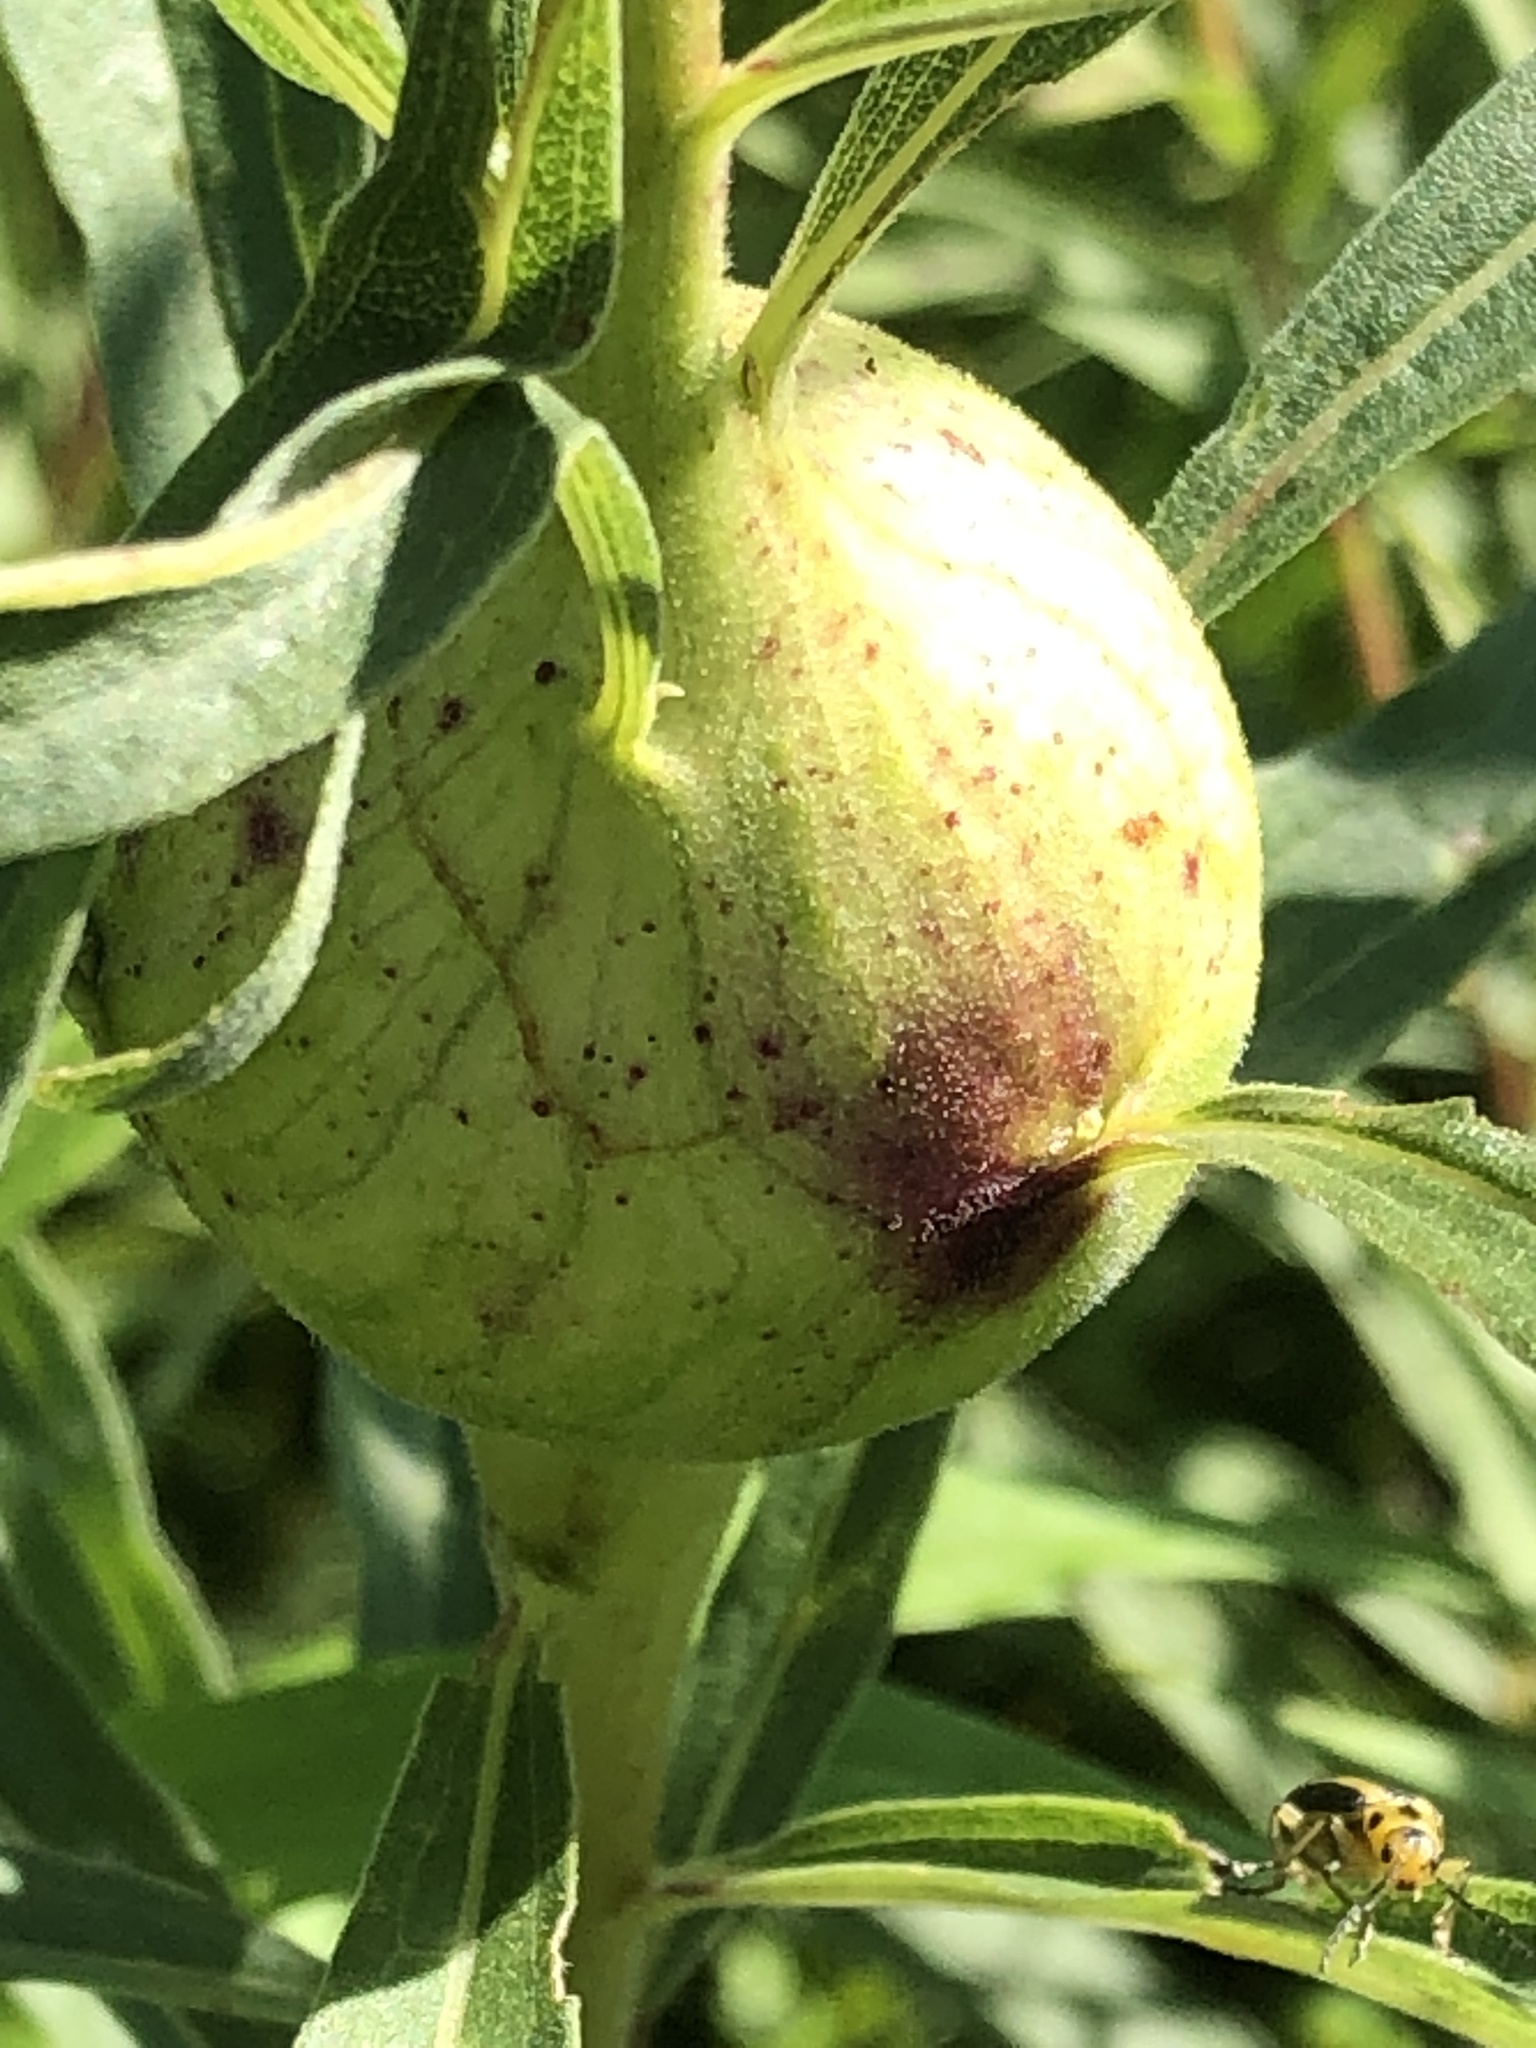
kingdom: Animalia
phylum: Arthropoda
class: Insecta
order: Diptera
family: Tephritidae
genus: Eurosta
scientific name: Eurosta solidaginis
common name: Goldenrod gall fly
